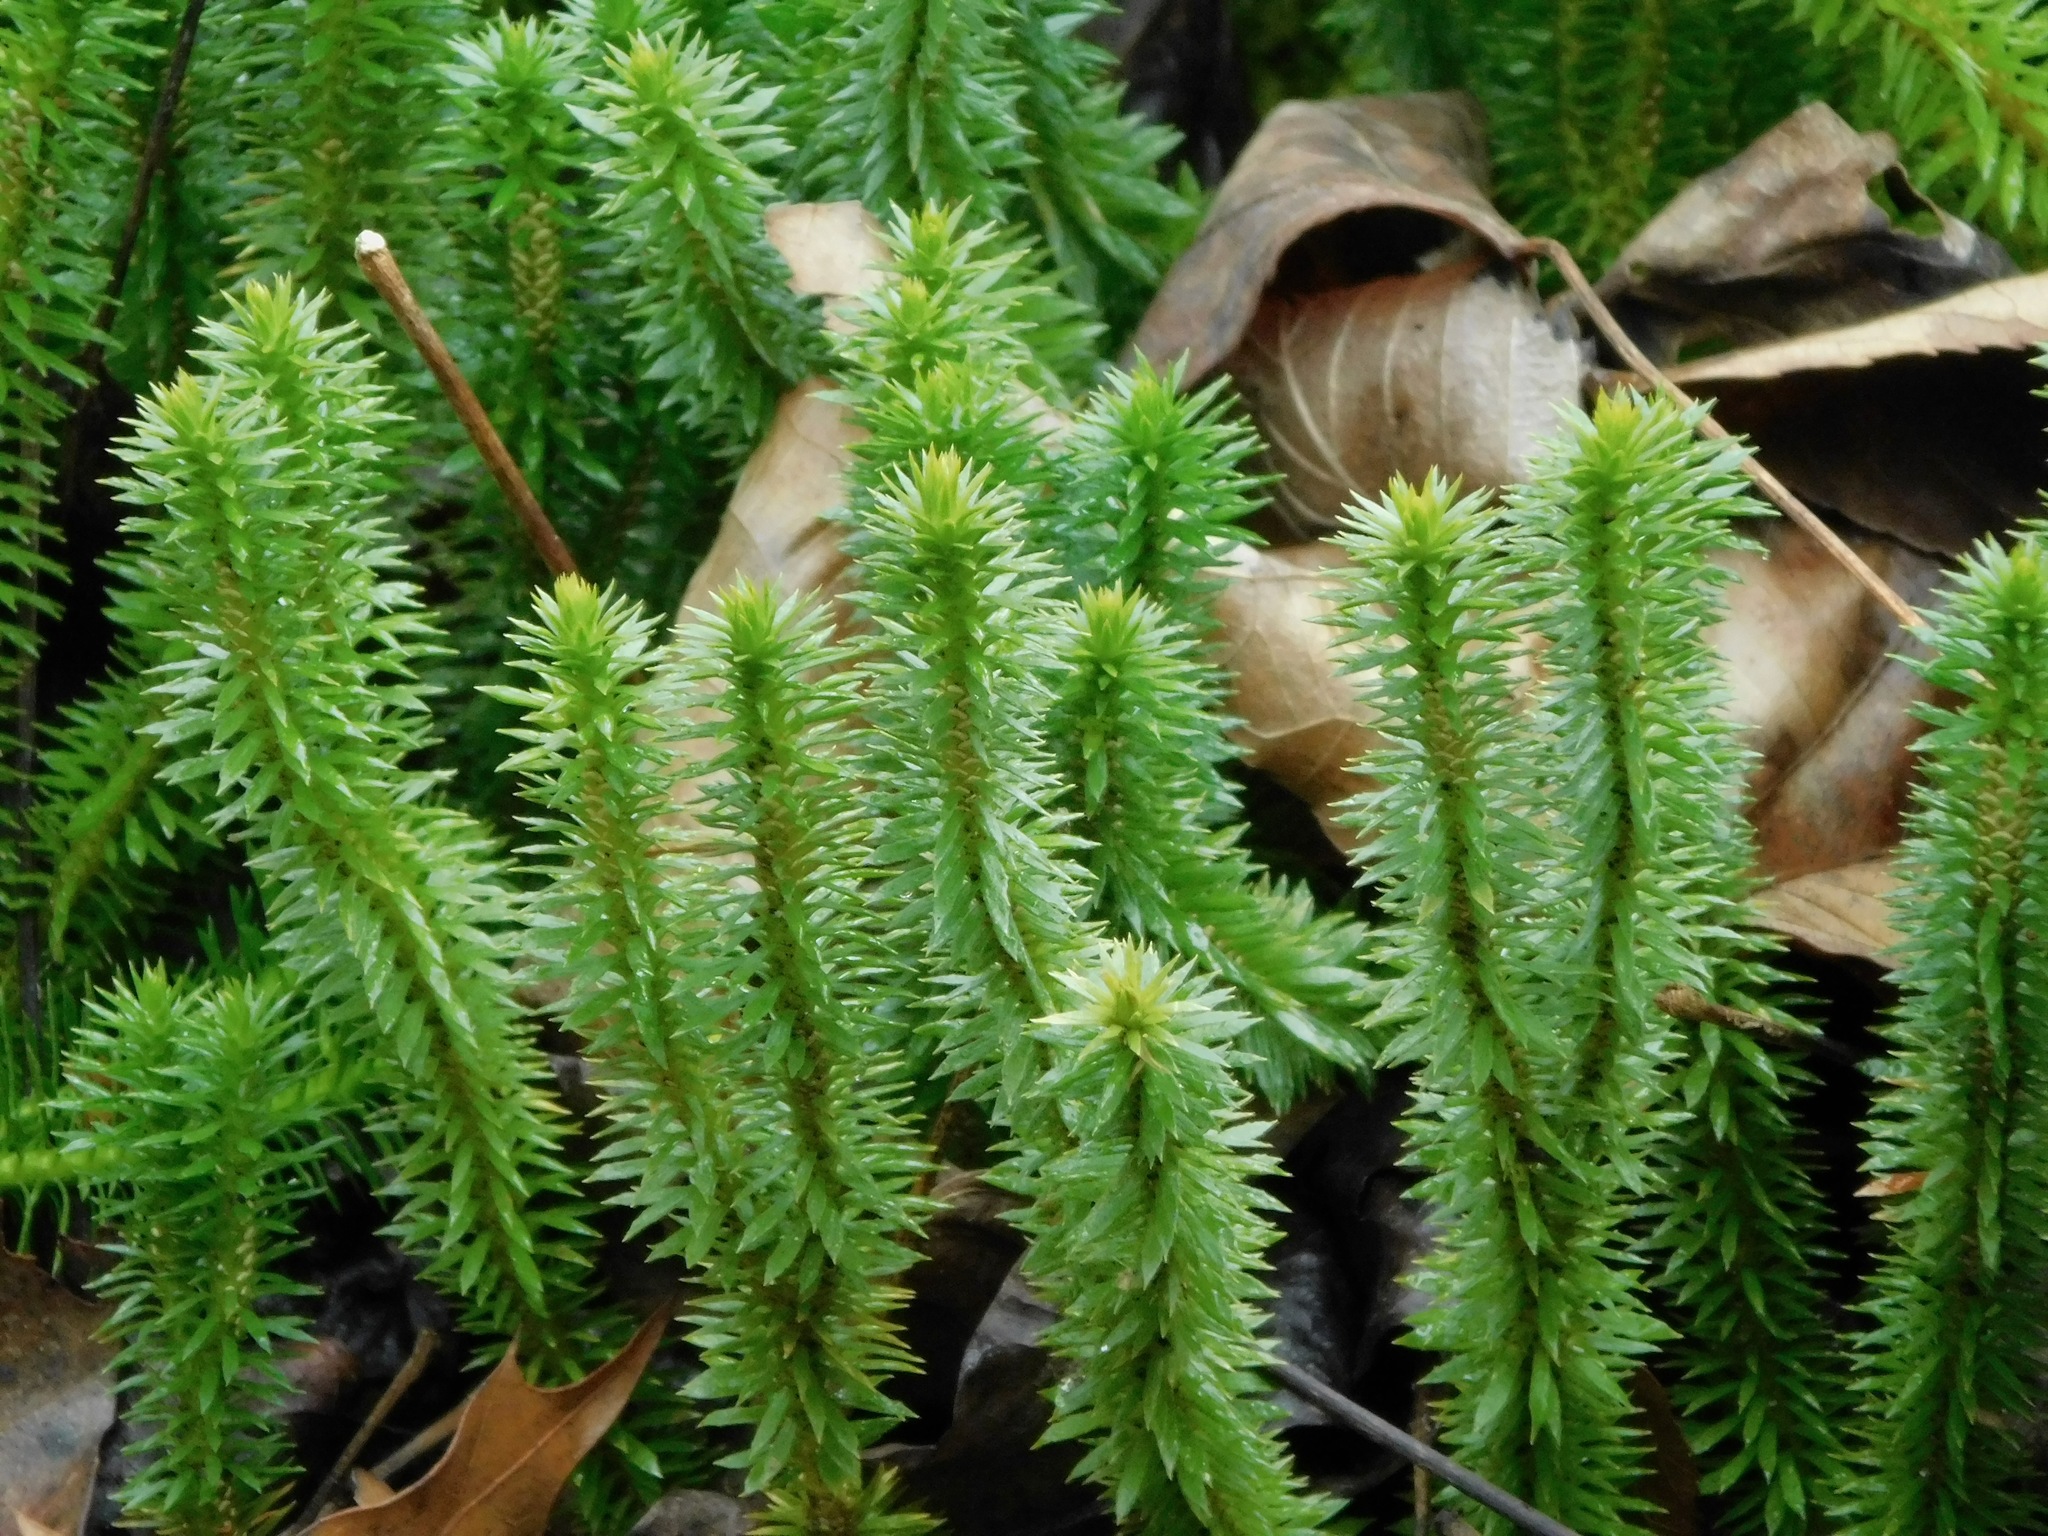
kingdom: Plantae
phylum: Tracheophyta
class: Lycopodiopsida
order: Lycopodiales
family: Lycopodiaceae
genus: Huperzia
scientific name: Huperzia lucidula
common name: Shining clubmoss
